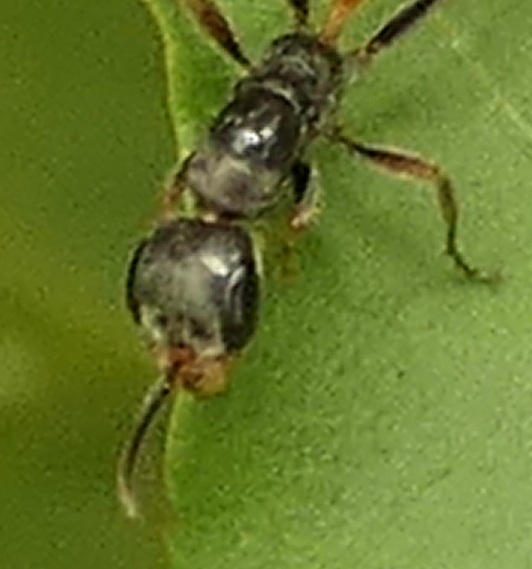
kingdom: Animalia
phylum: Arthropoda
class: Insecta
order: Hymenoptera
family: Formicidae
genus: Pseudomyrmex
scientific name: Pseudomyrmex venustus
